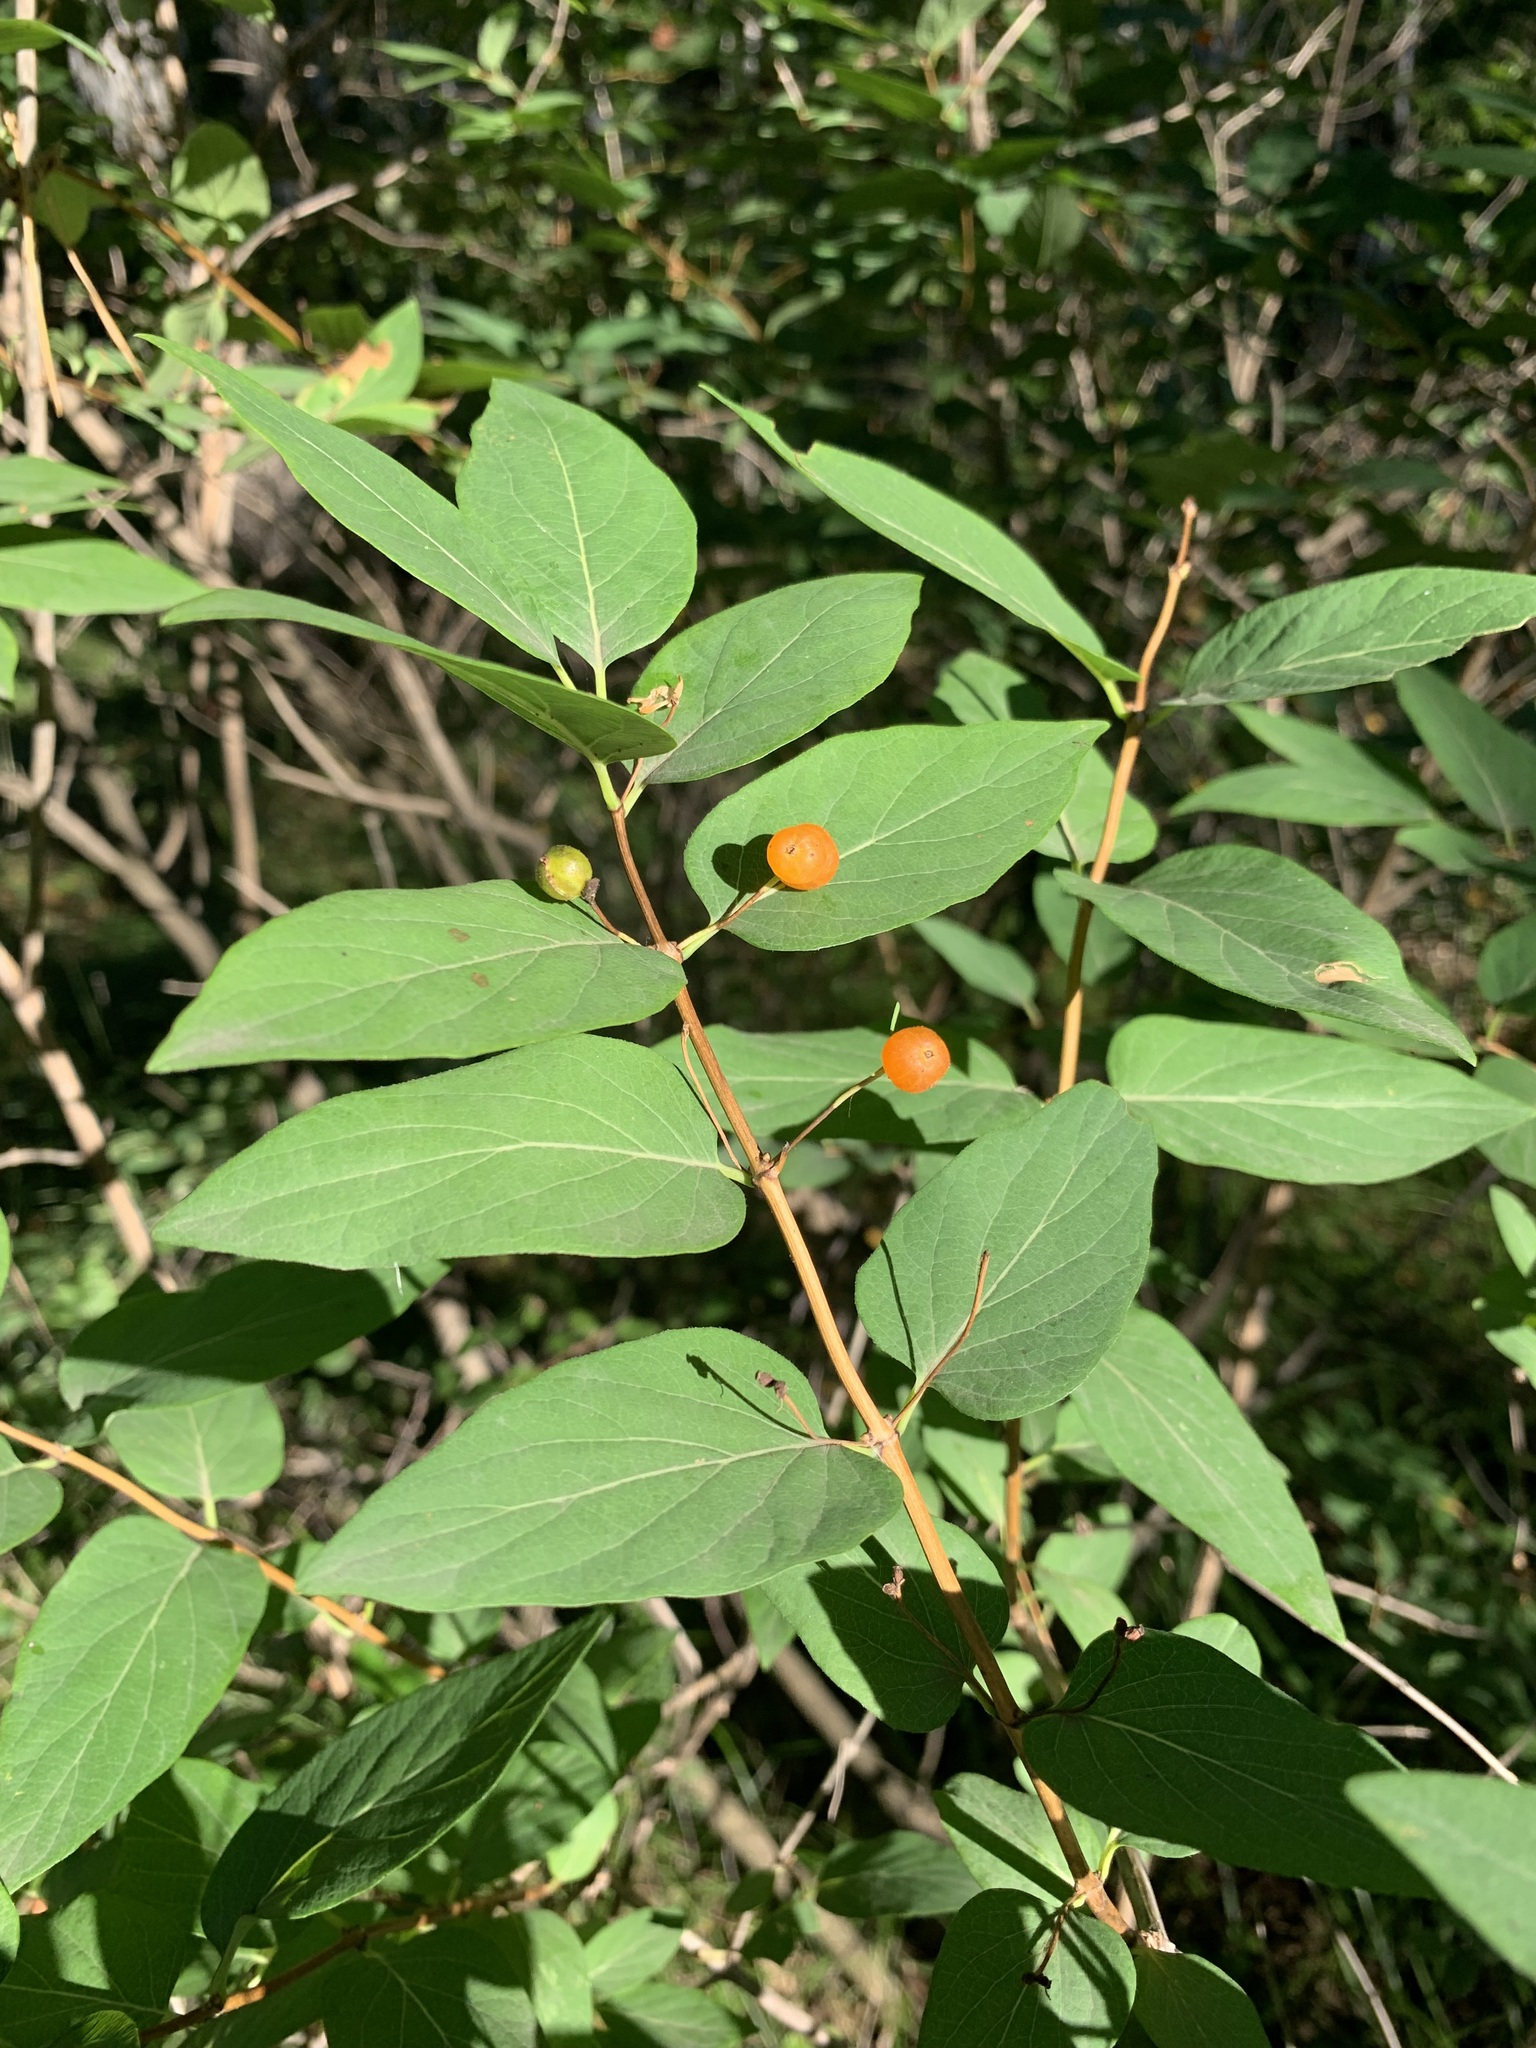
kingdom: Plantae
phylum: Tracheophyta
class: Magnoliopsida
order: Dipsacales
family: Caprifoliaceae
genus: Lonicera
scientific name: Lonicera tatarica
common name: Tatarian honeysuckle
